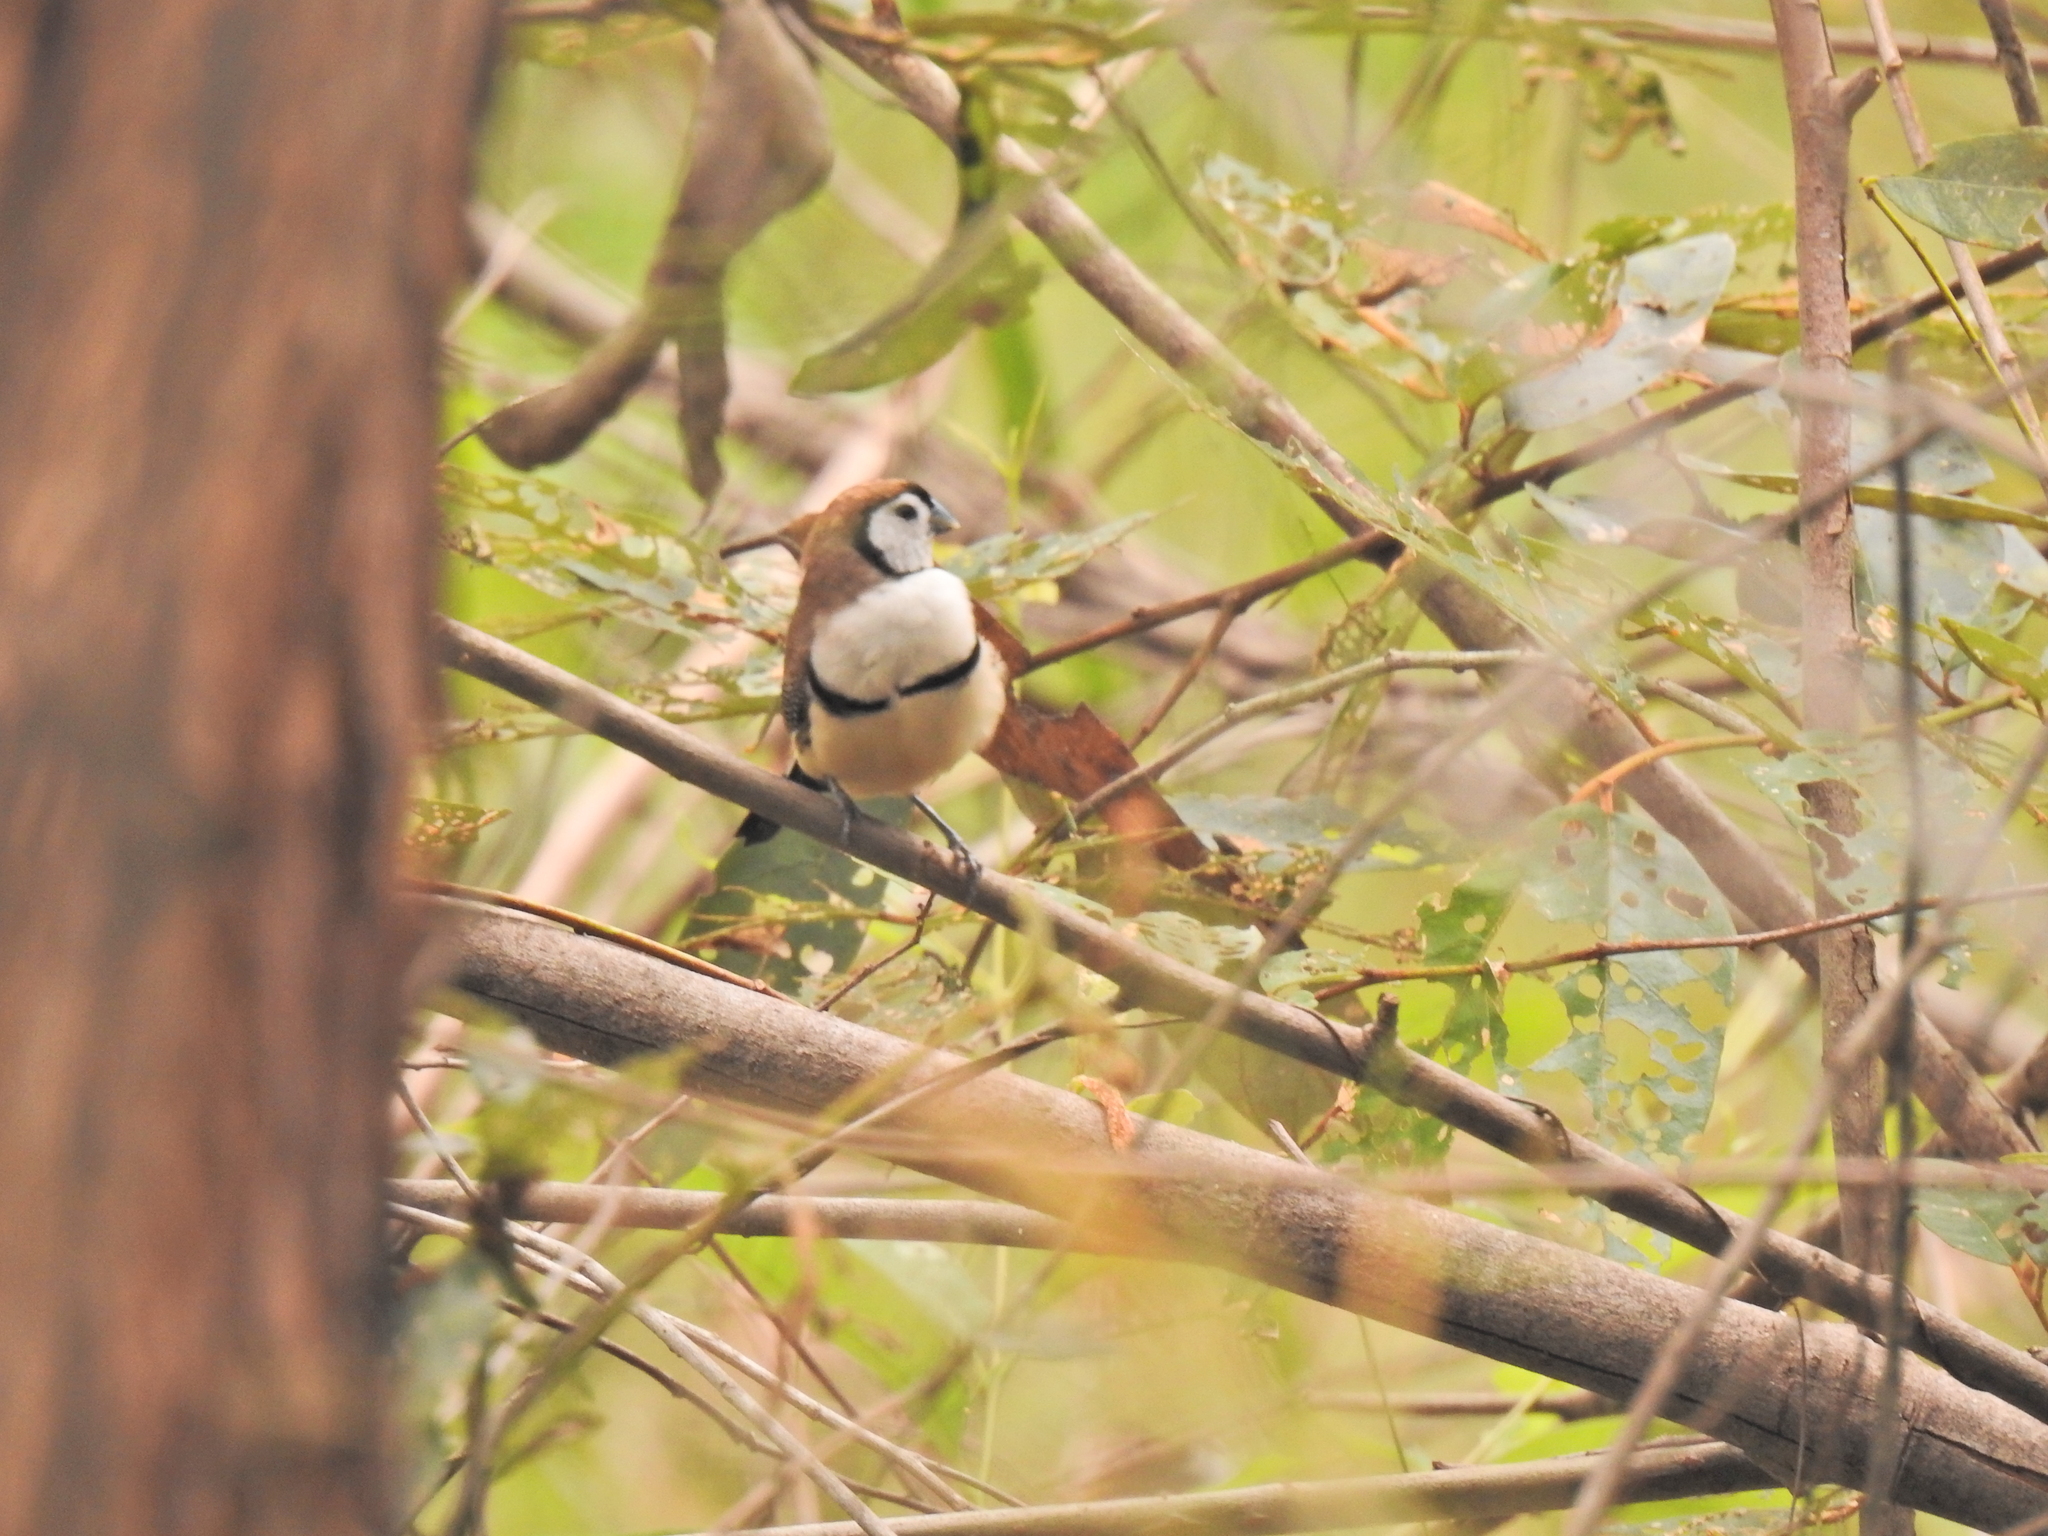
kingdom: Animalia
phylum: Chordata
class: Aves
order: Passeriformes
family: Estrildidae
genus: Taeniopygia
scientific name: Taeniopygia bichenovii
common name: Double-barred finch
